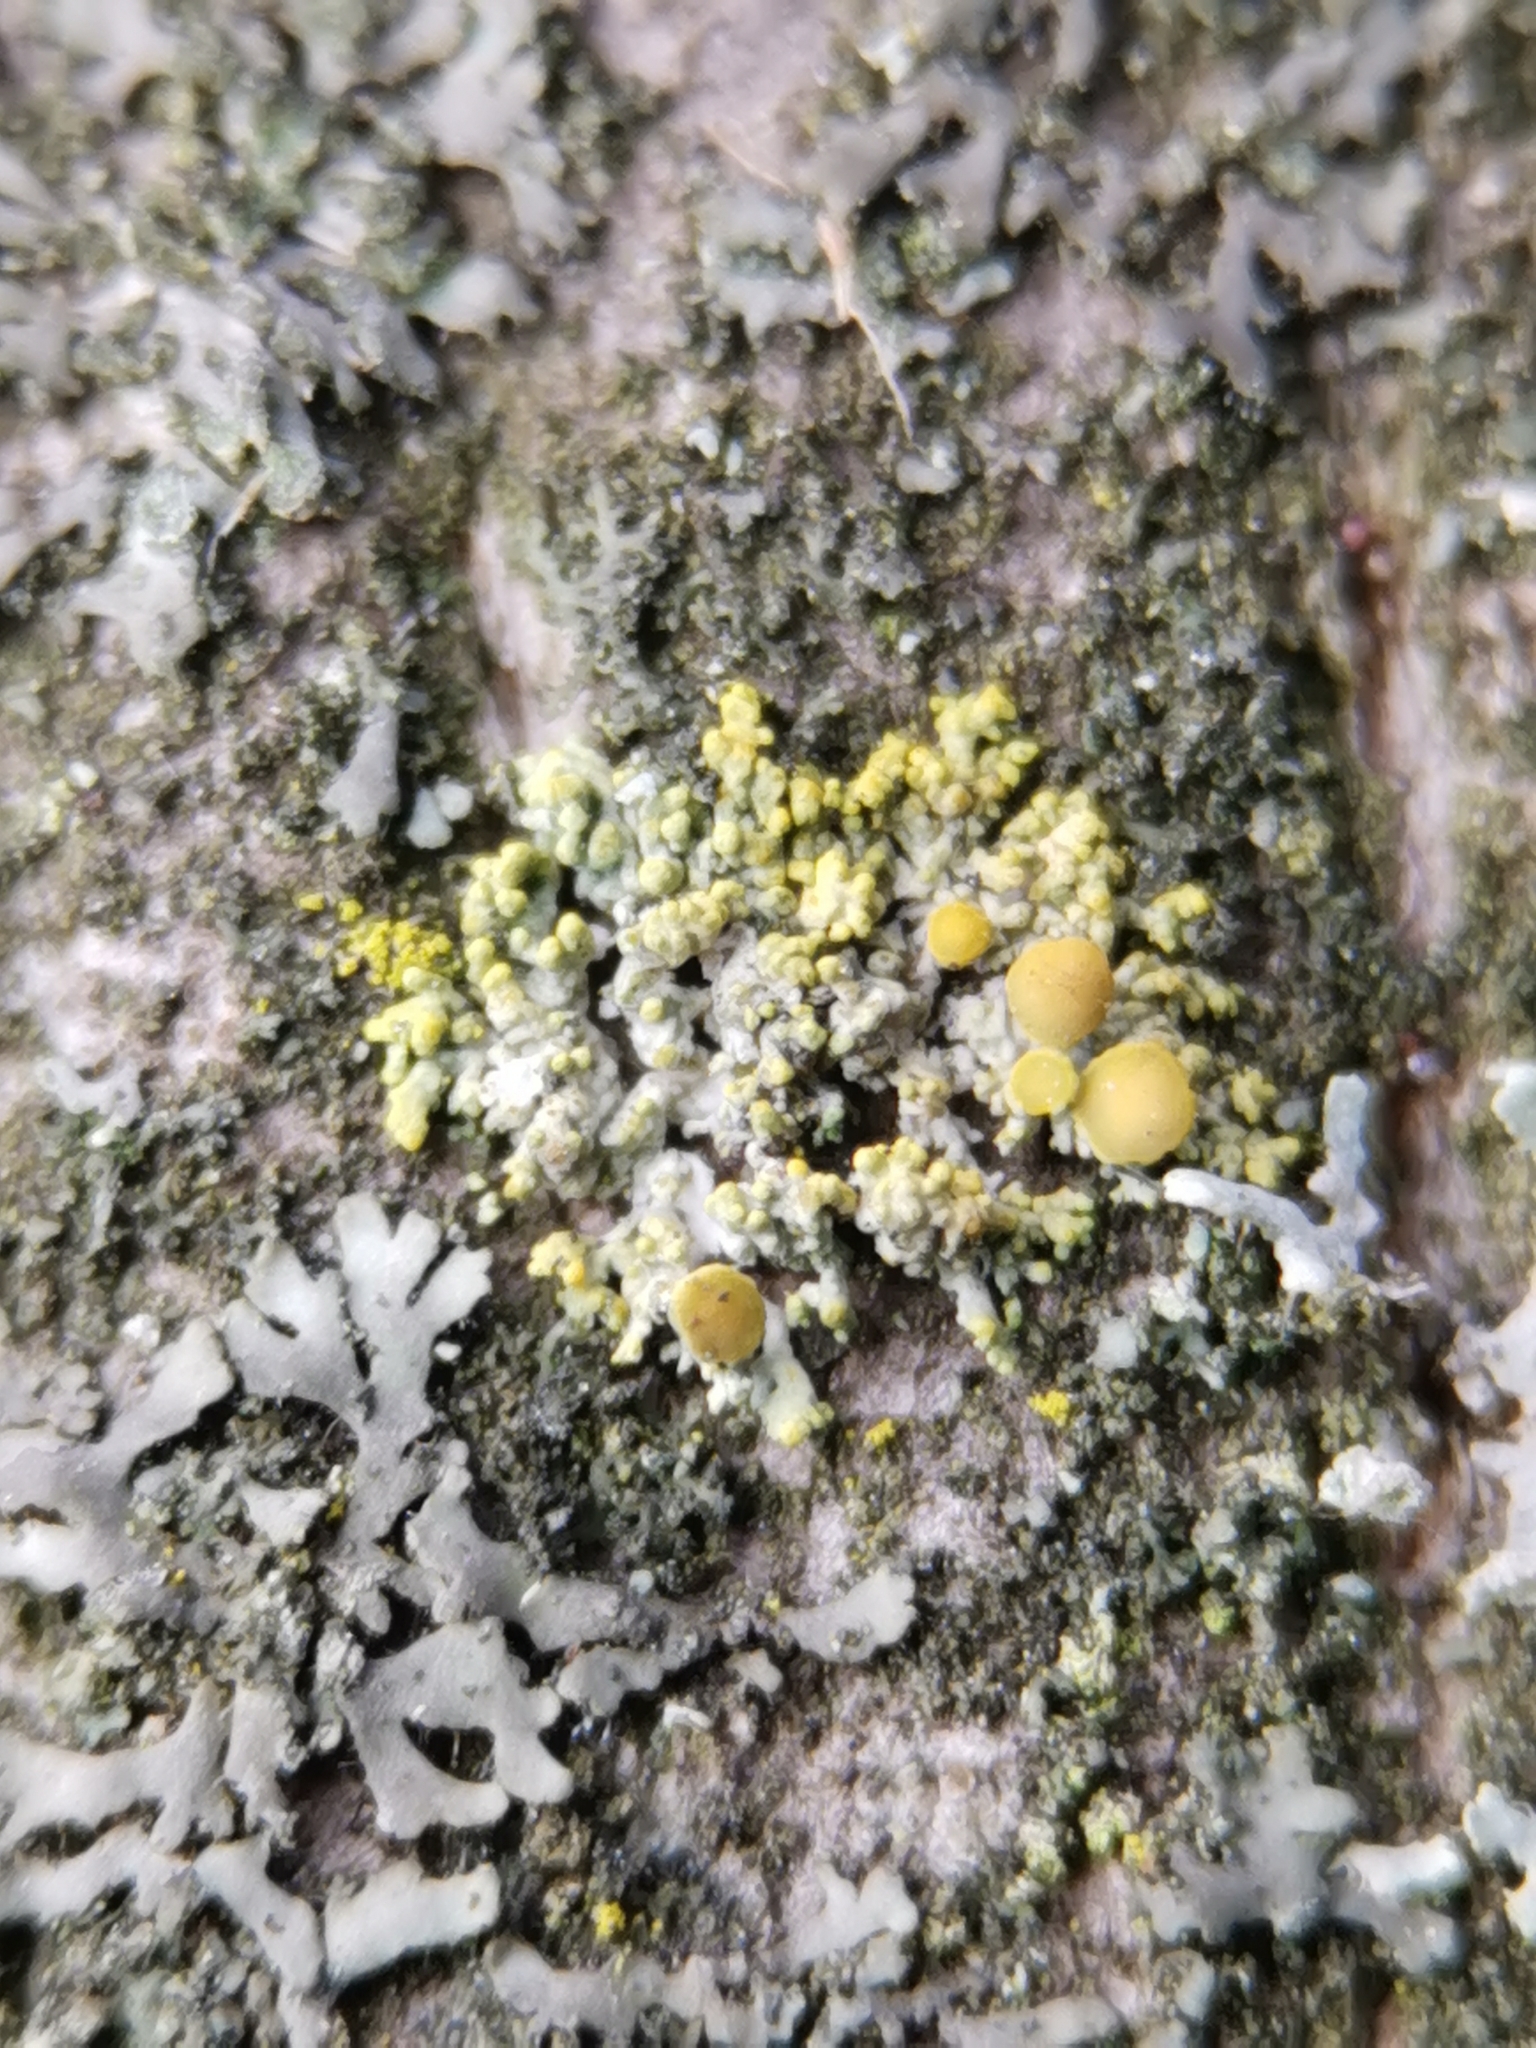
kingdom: Fungi
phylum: Ascomycota
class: Lecanoromycetes
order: Teloschistales
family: Teloschistaceae
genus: Polycauliona
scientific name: Polycauliona polycarpa
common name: Pin-cushion sunburst lichen
